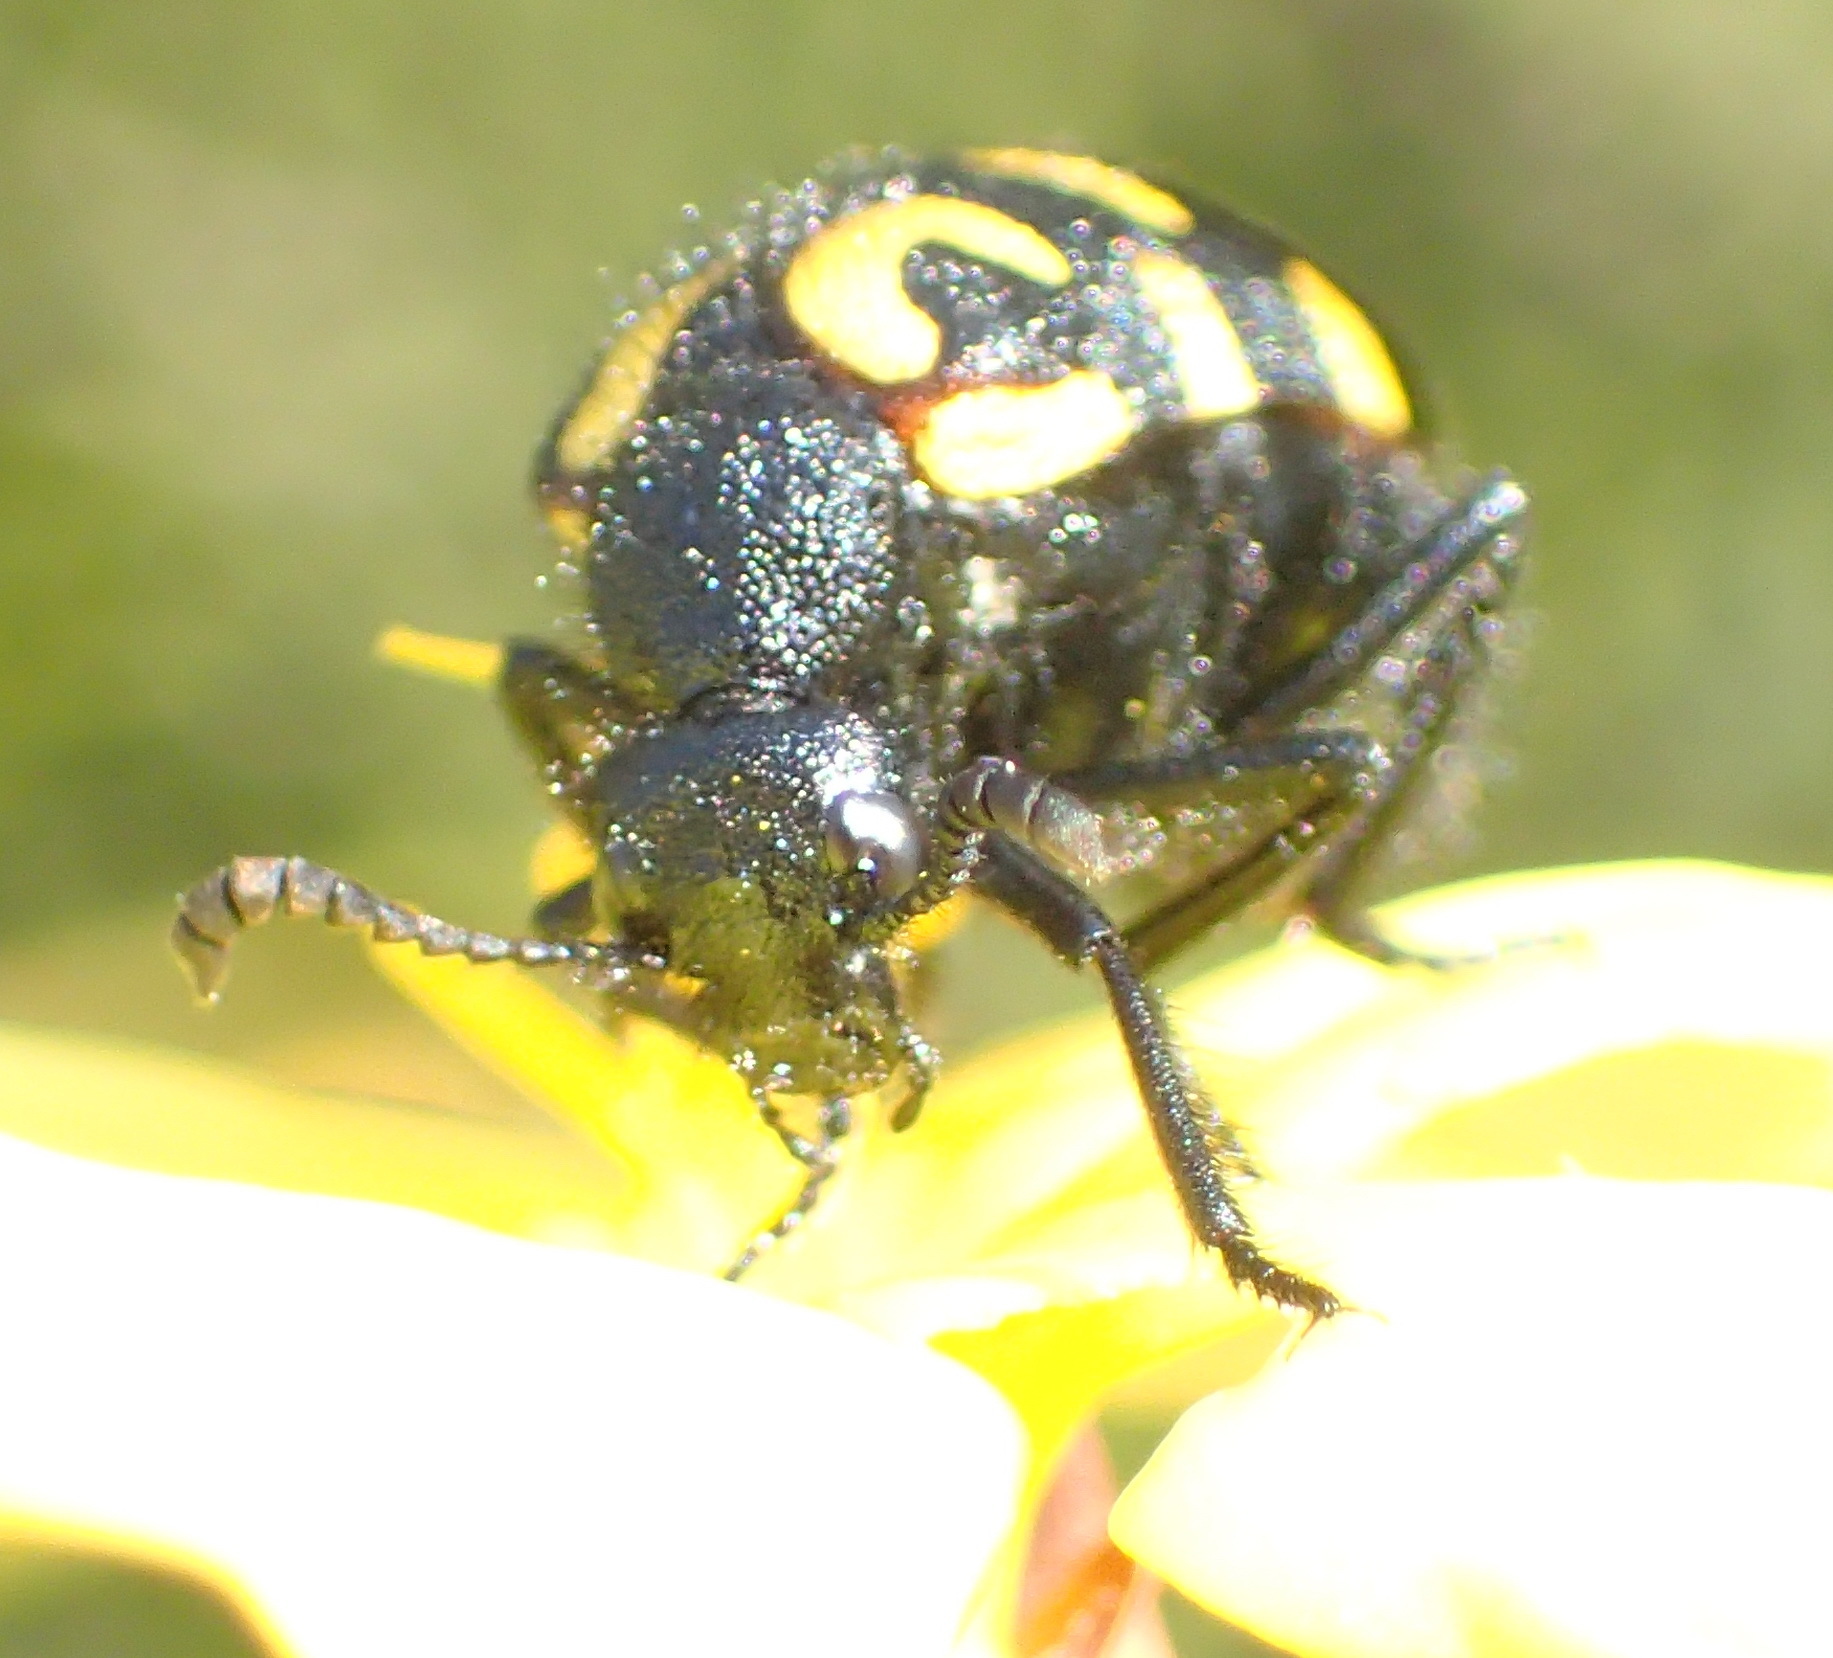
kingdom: Animalia
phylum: Arthropoda
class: Insecta
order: Coleoptera
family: Meloidae
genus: Ceroctis
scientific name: Ceroctis capensis
